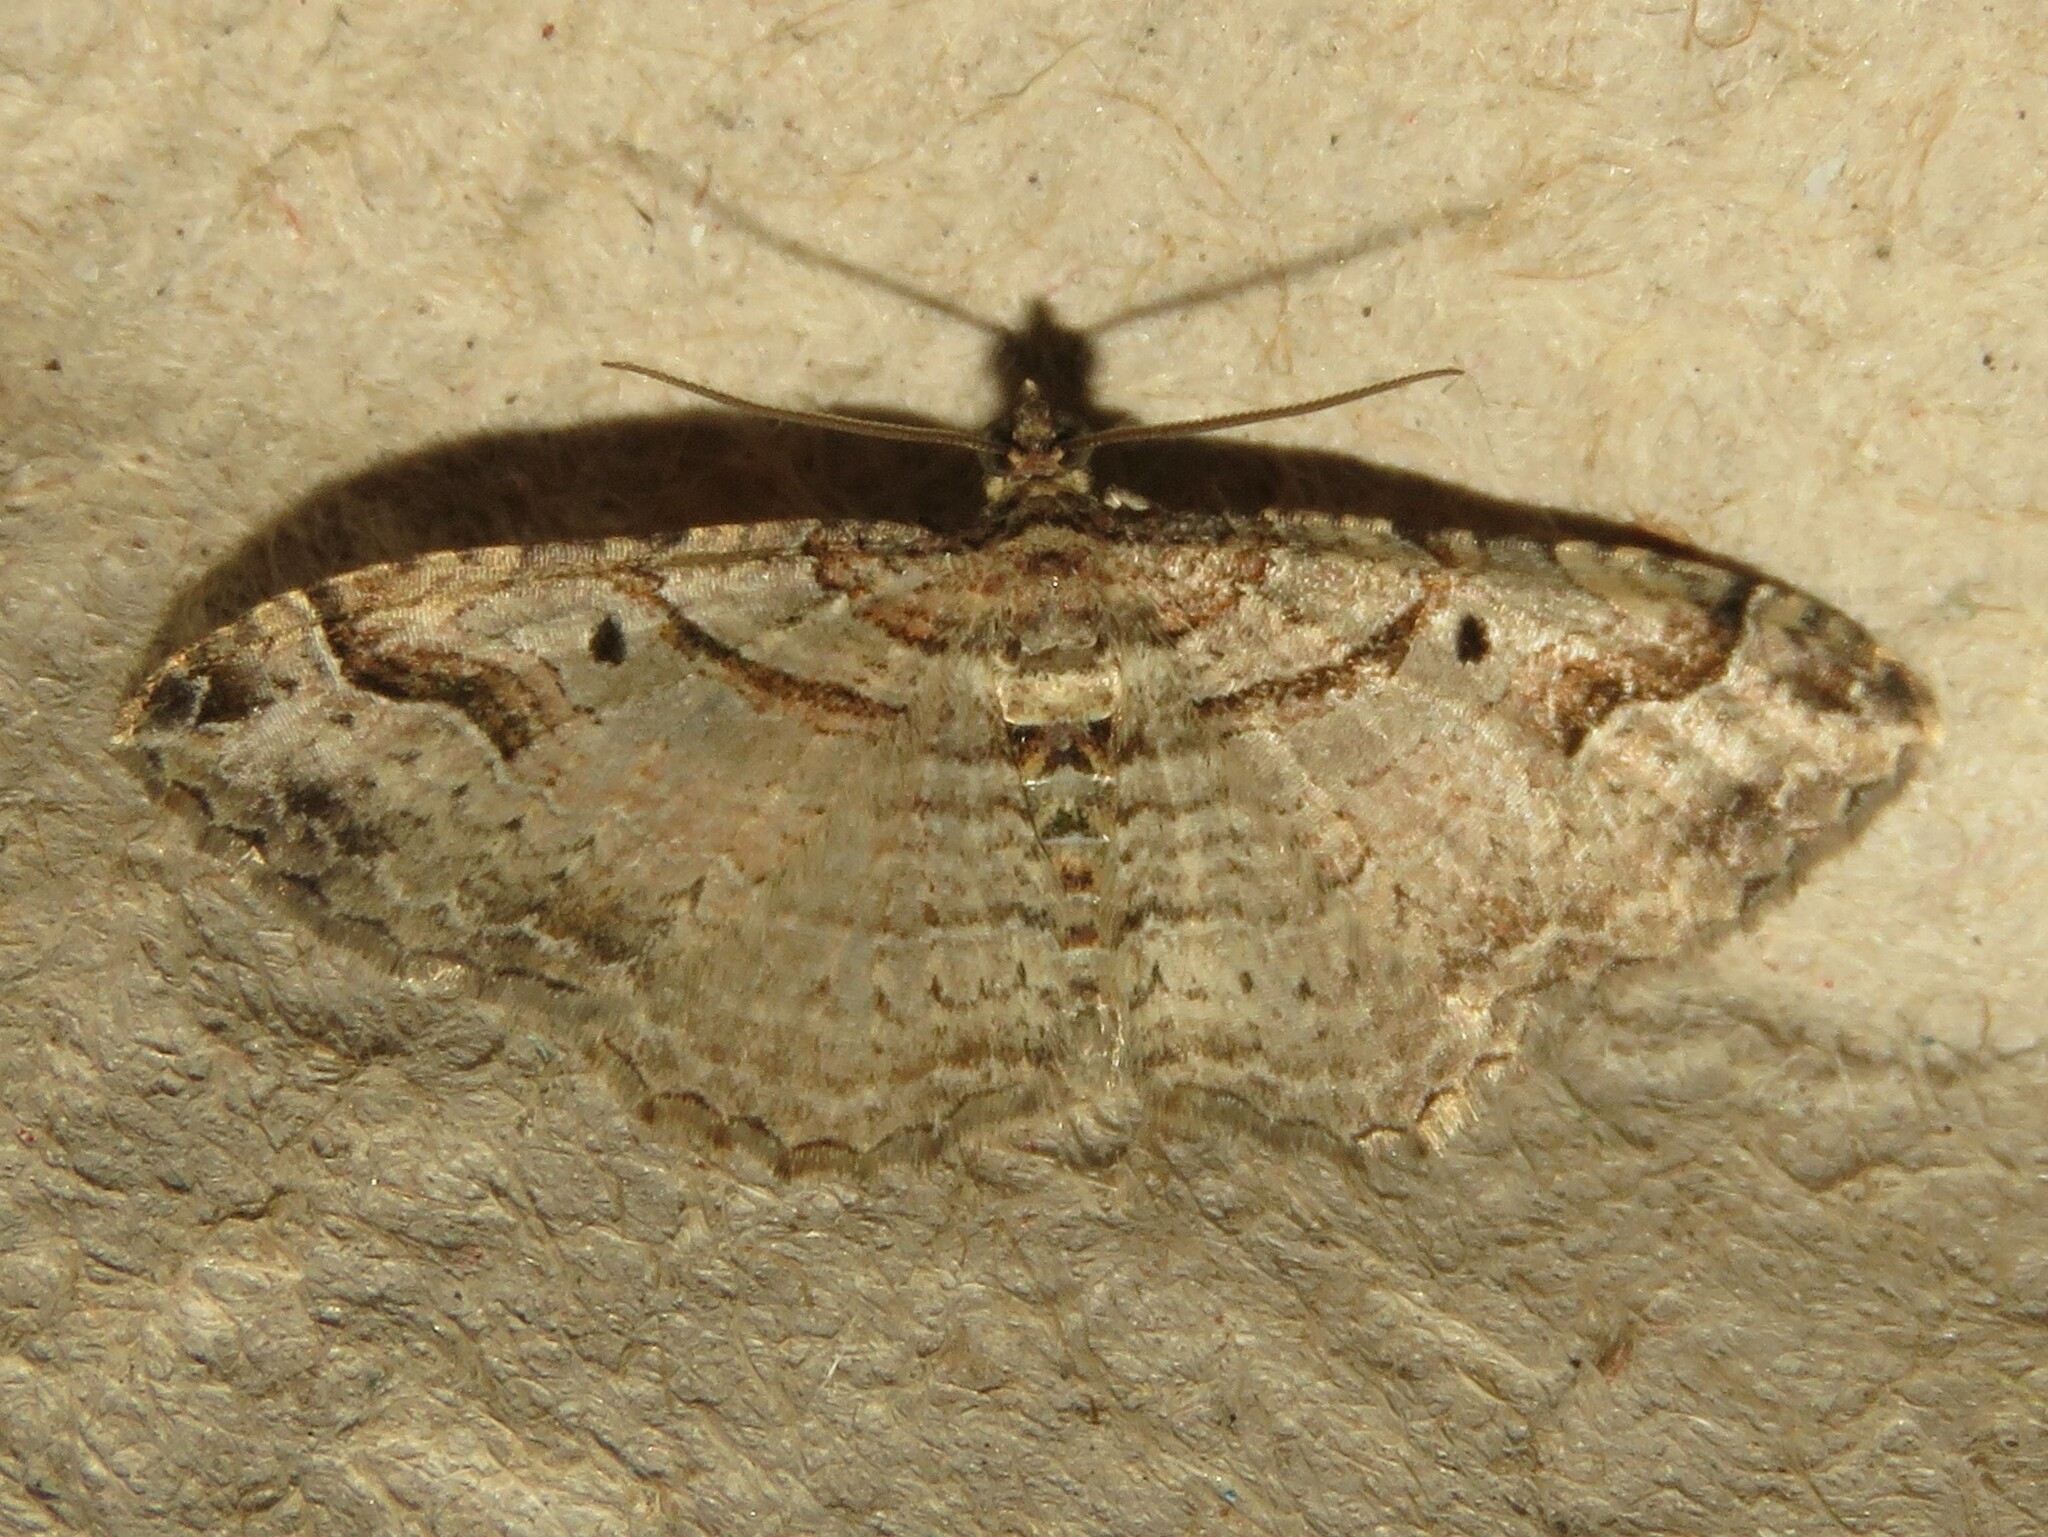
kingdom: Animalia
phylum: Arthropoda
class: Insecta
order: Lepidoptera
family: Geometridae
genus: Costaconvexa
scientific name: Costaconvexa centrostrigaria
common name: Bent-line carpet
